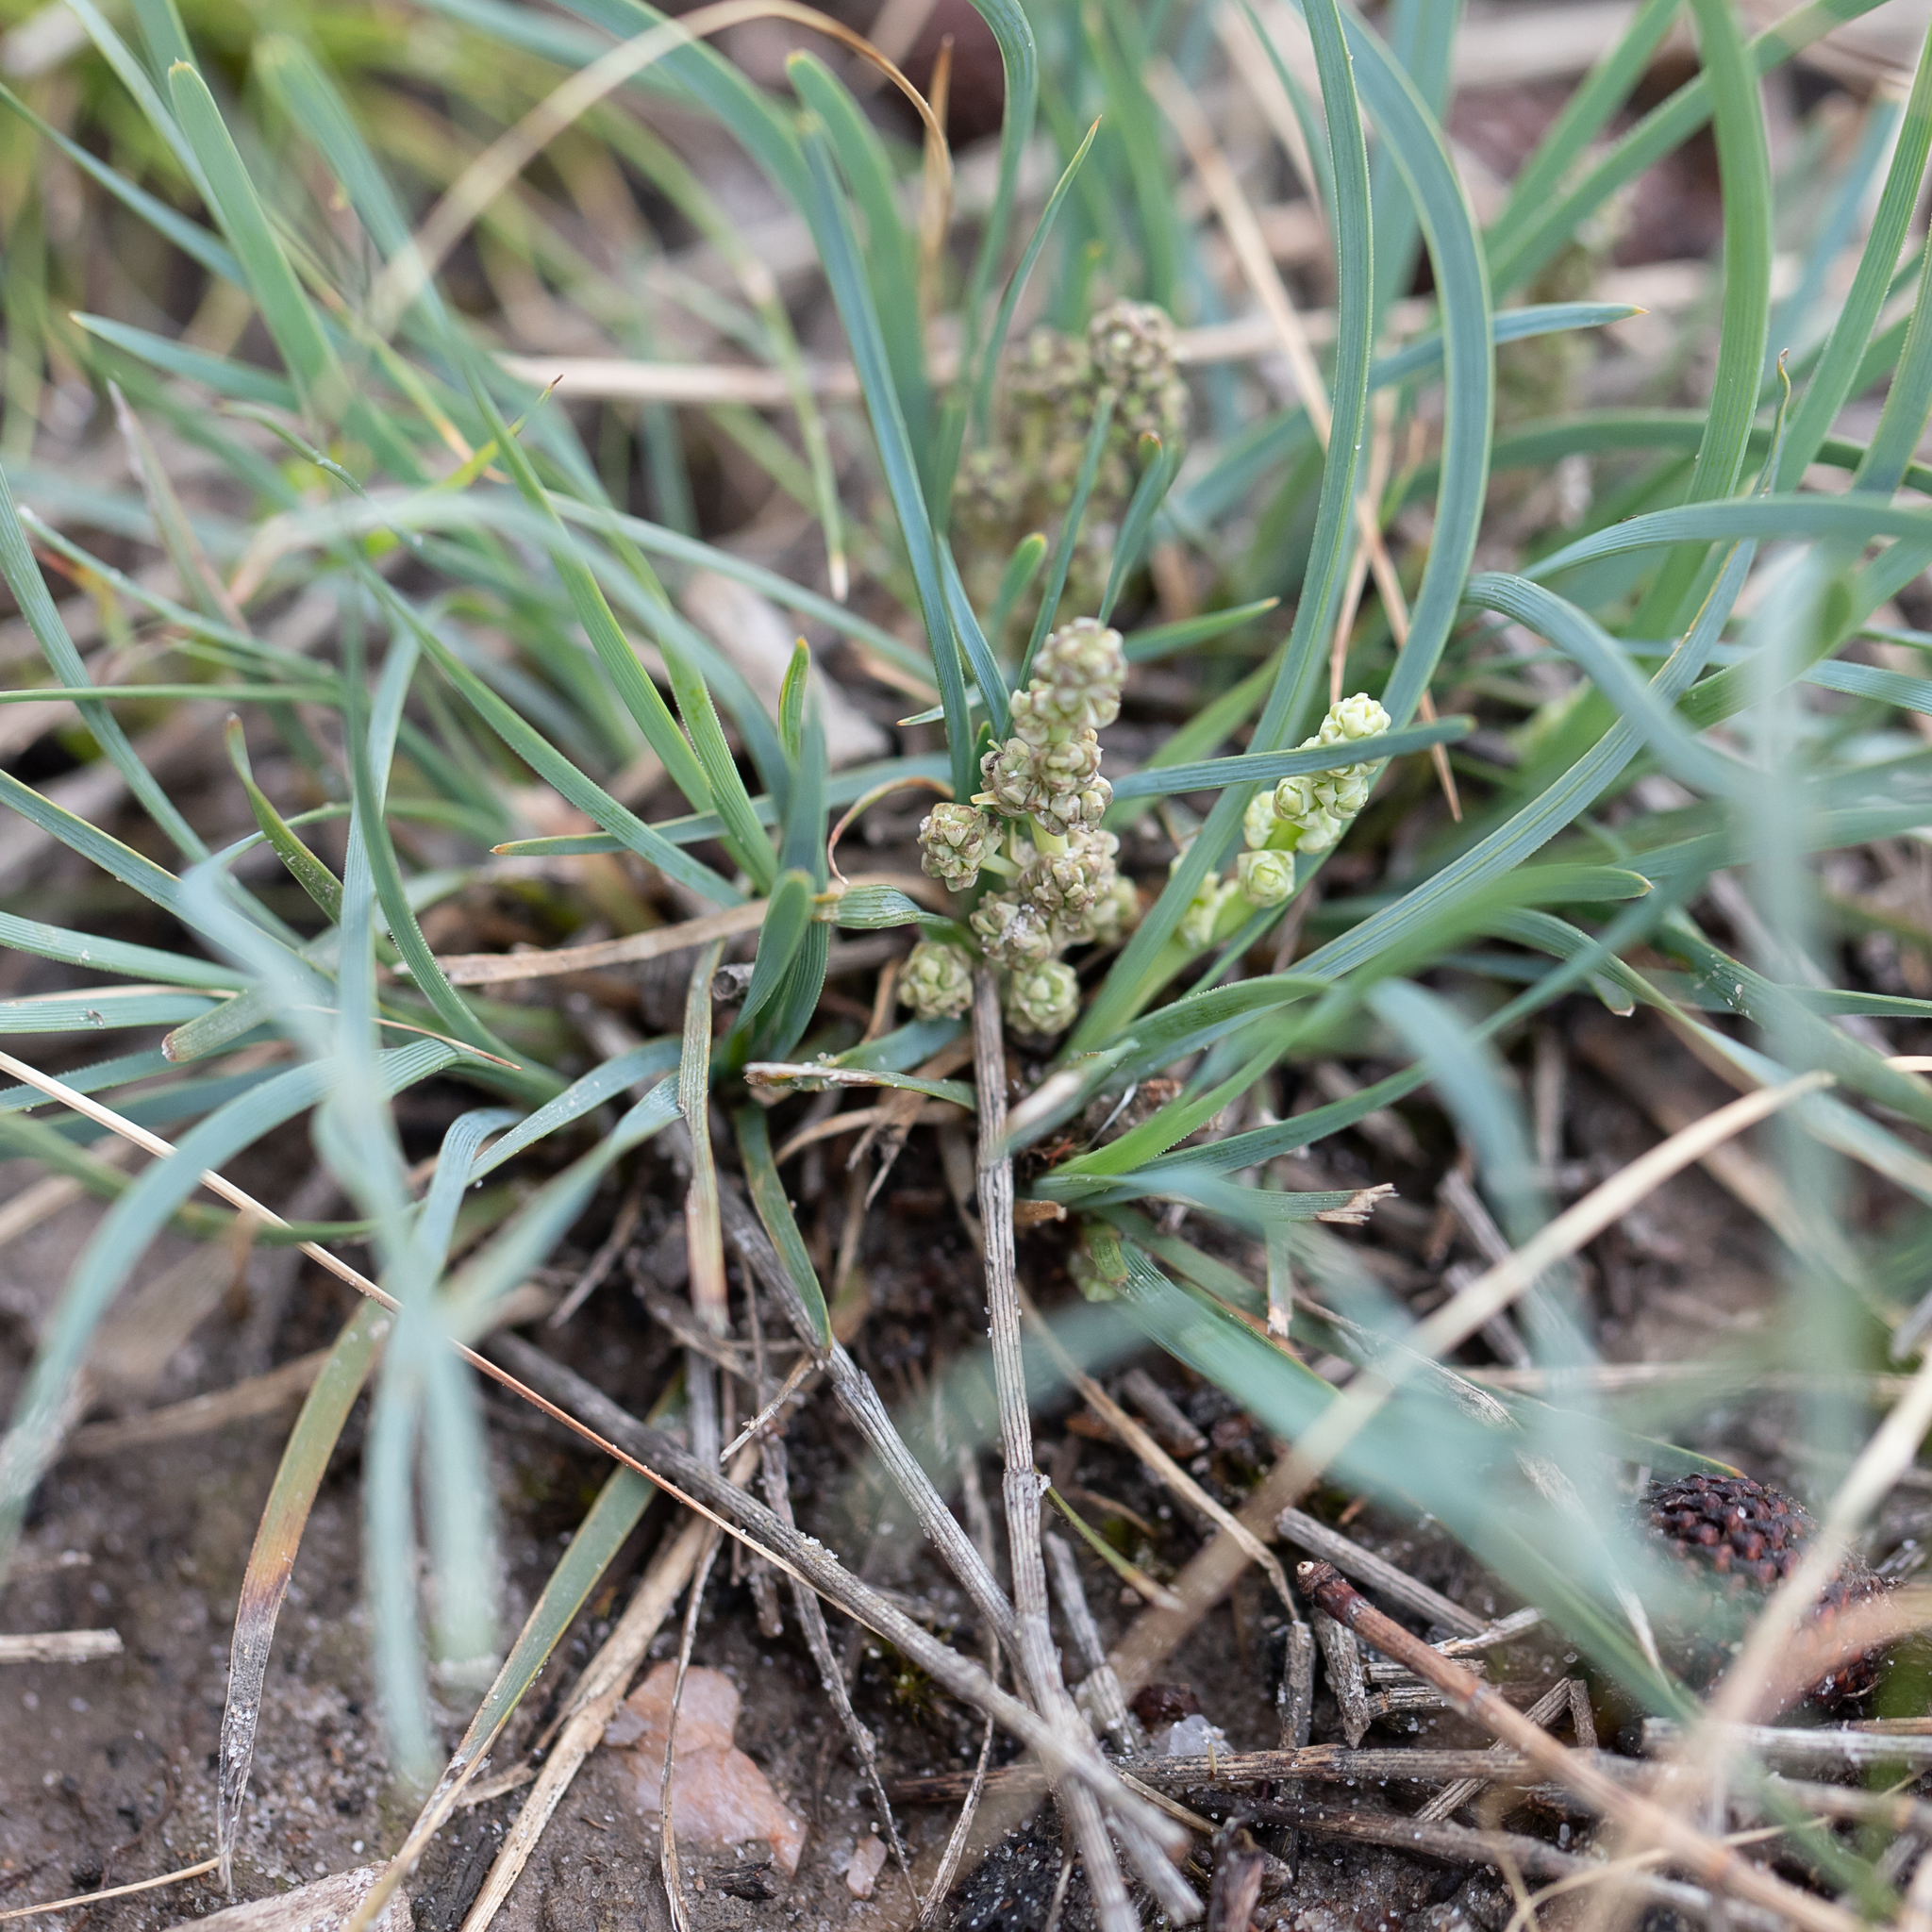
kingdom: Plantae
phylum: Tracheophyta
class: Liliopsida
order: Asparagales
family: Asparagaceae
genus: Lomandra
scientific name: Lomandra nana
